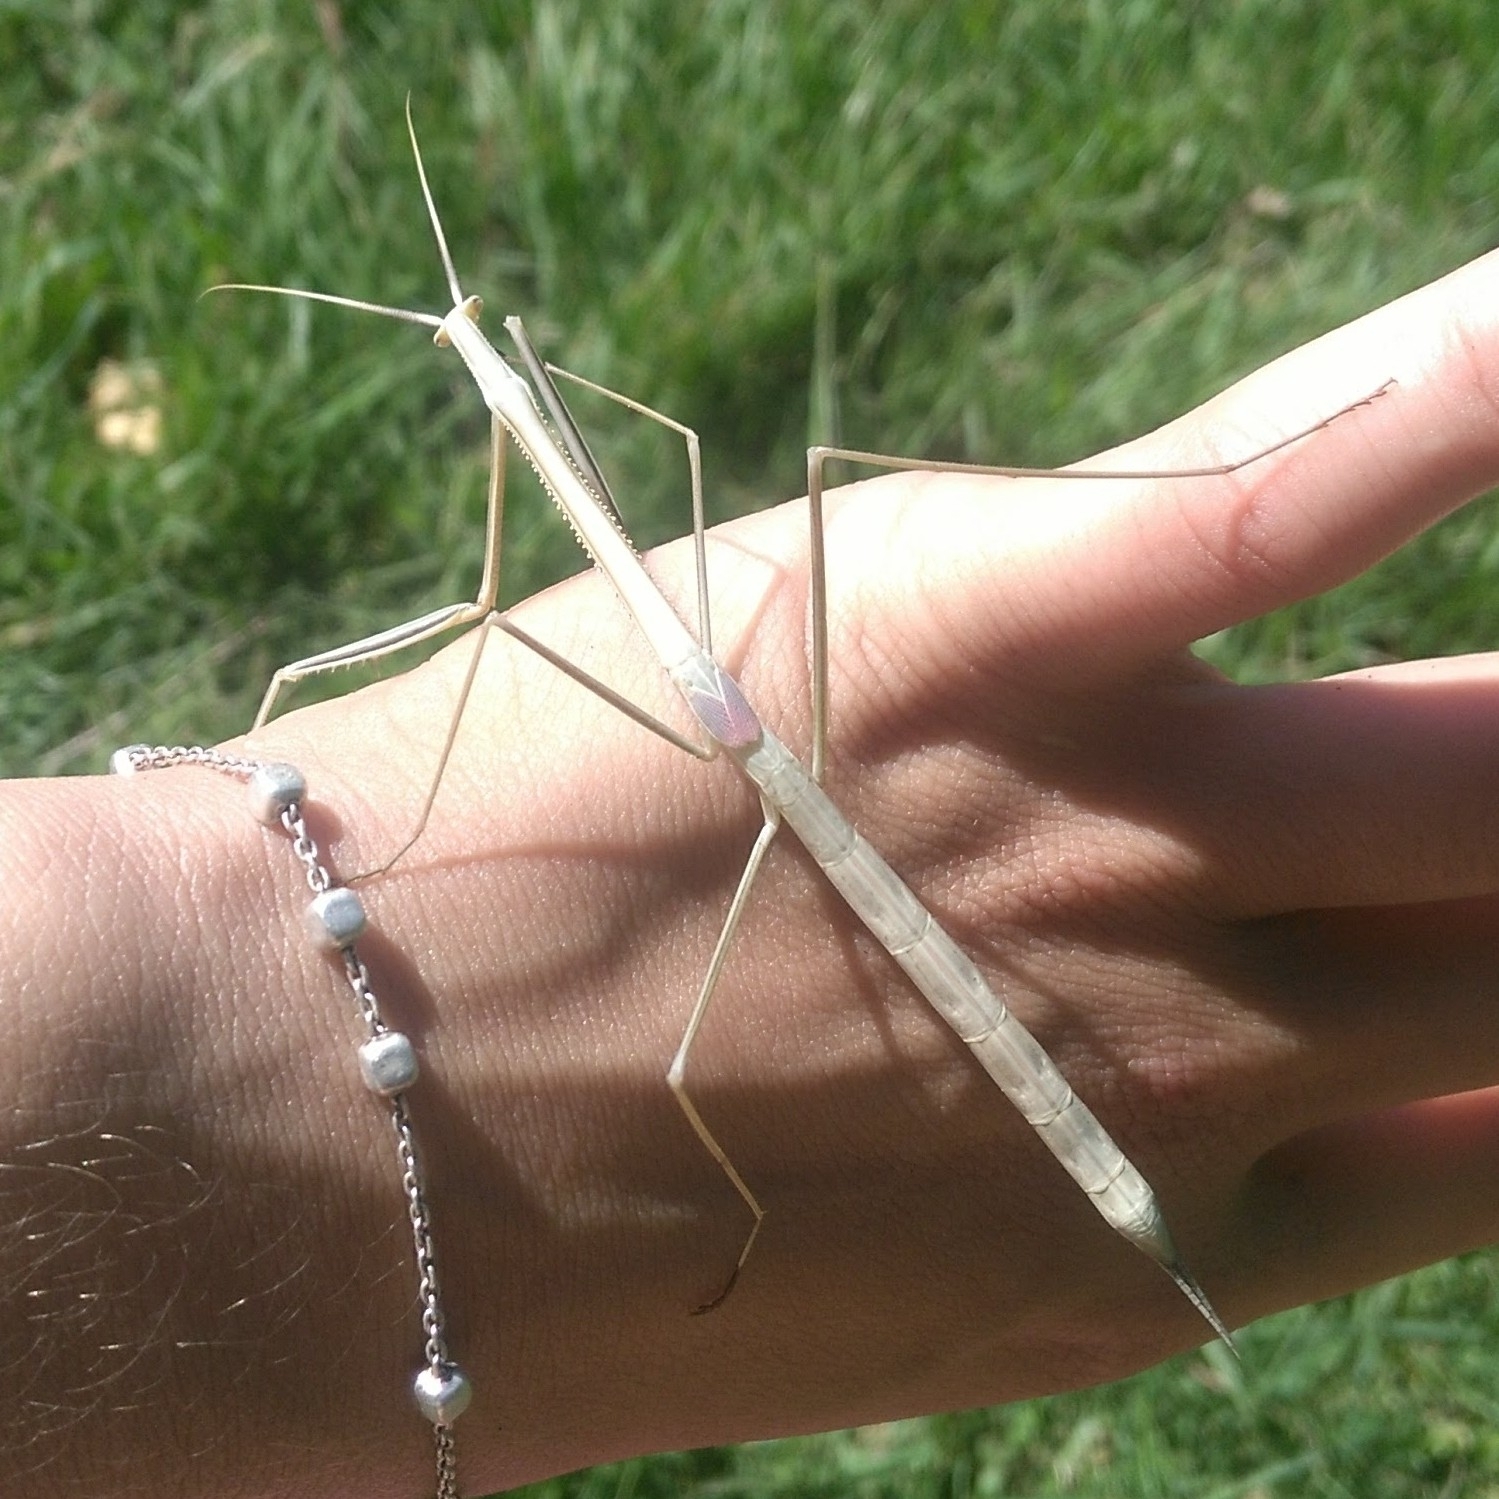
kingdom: Animalia
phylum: Arthropoda
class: Insecta
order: Mantodea
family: Coptopterygidae
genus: Brunneria
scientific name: Brunneria subaptera
